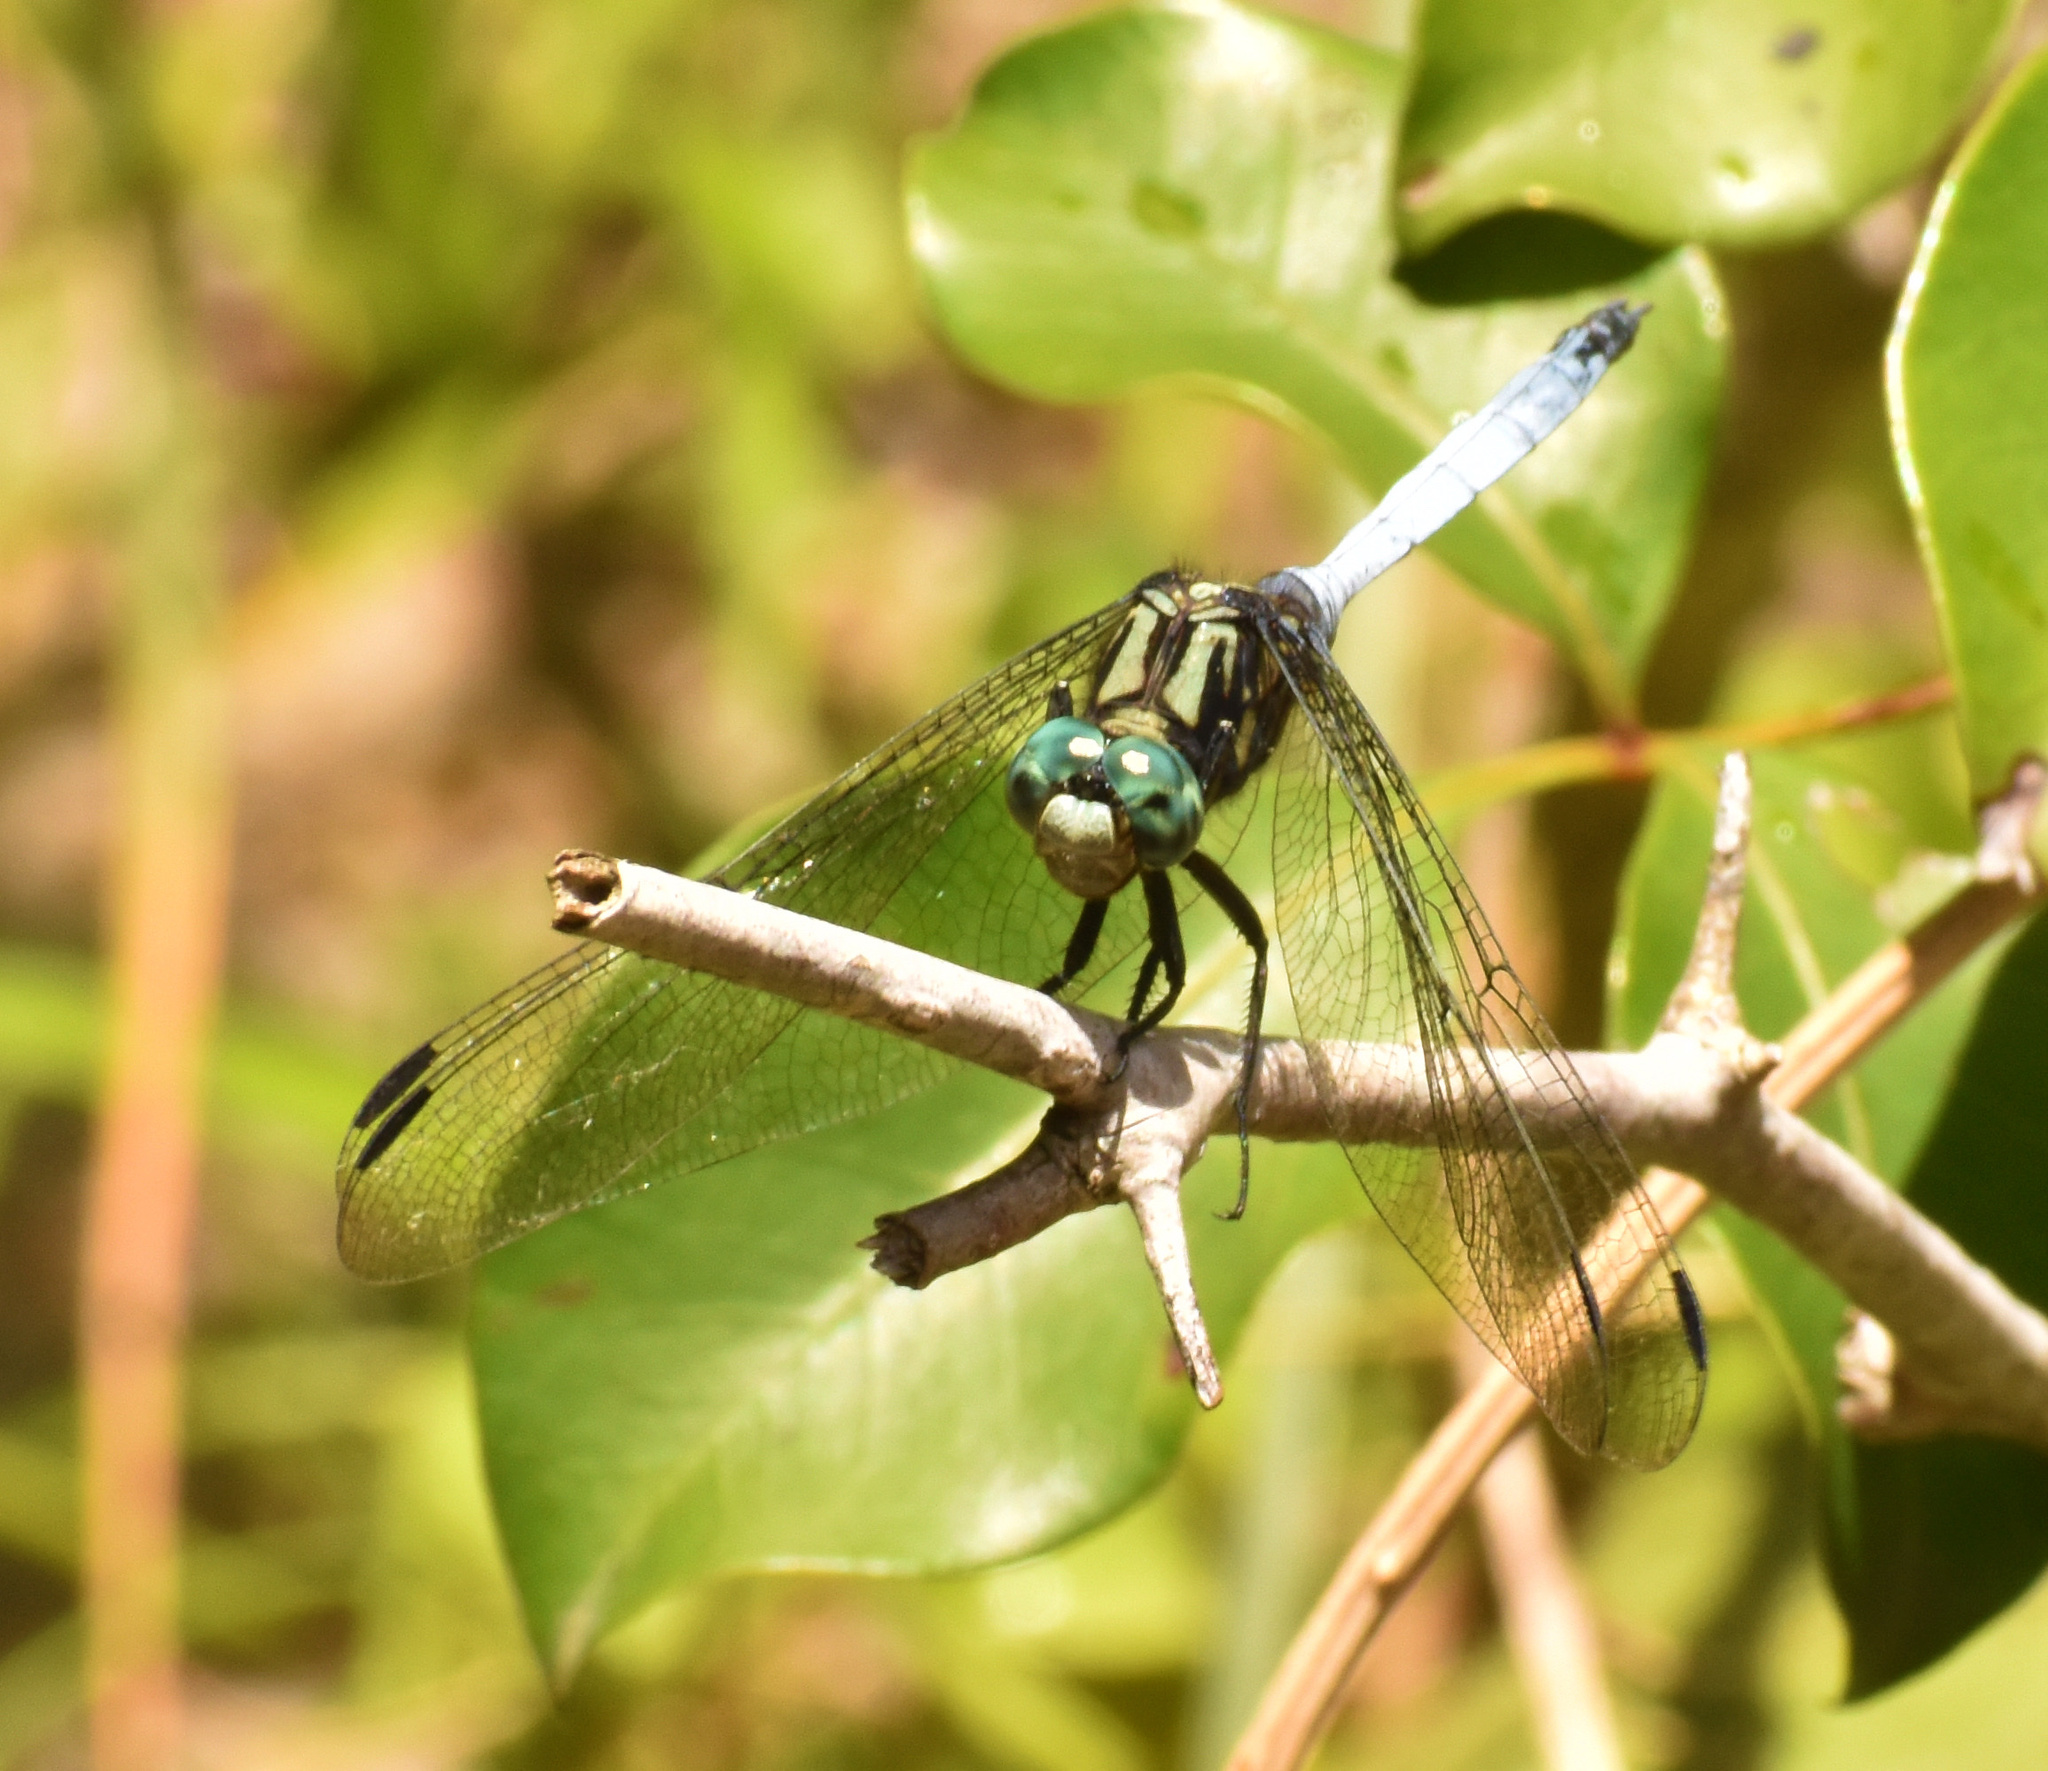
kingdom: Animalia
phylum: Arthropoda
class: Insecta
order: Odonata
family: Libellulidae
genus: Orthetrum
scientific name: Orthetrum julia
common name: Julia skimmer
